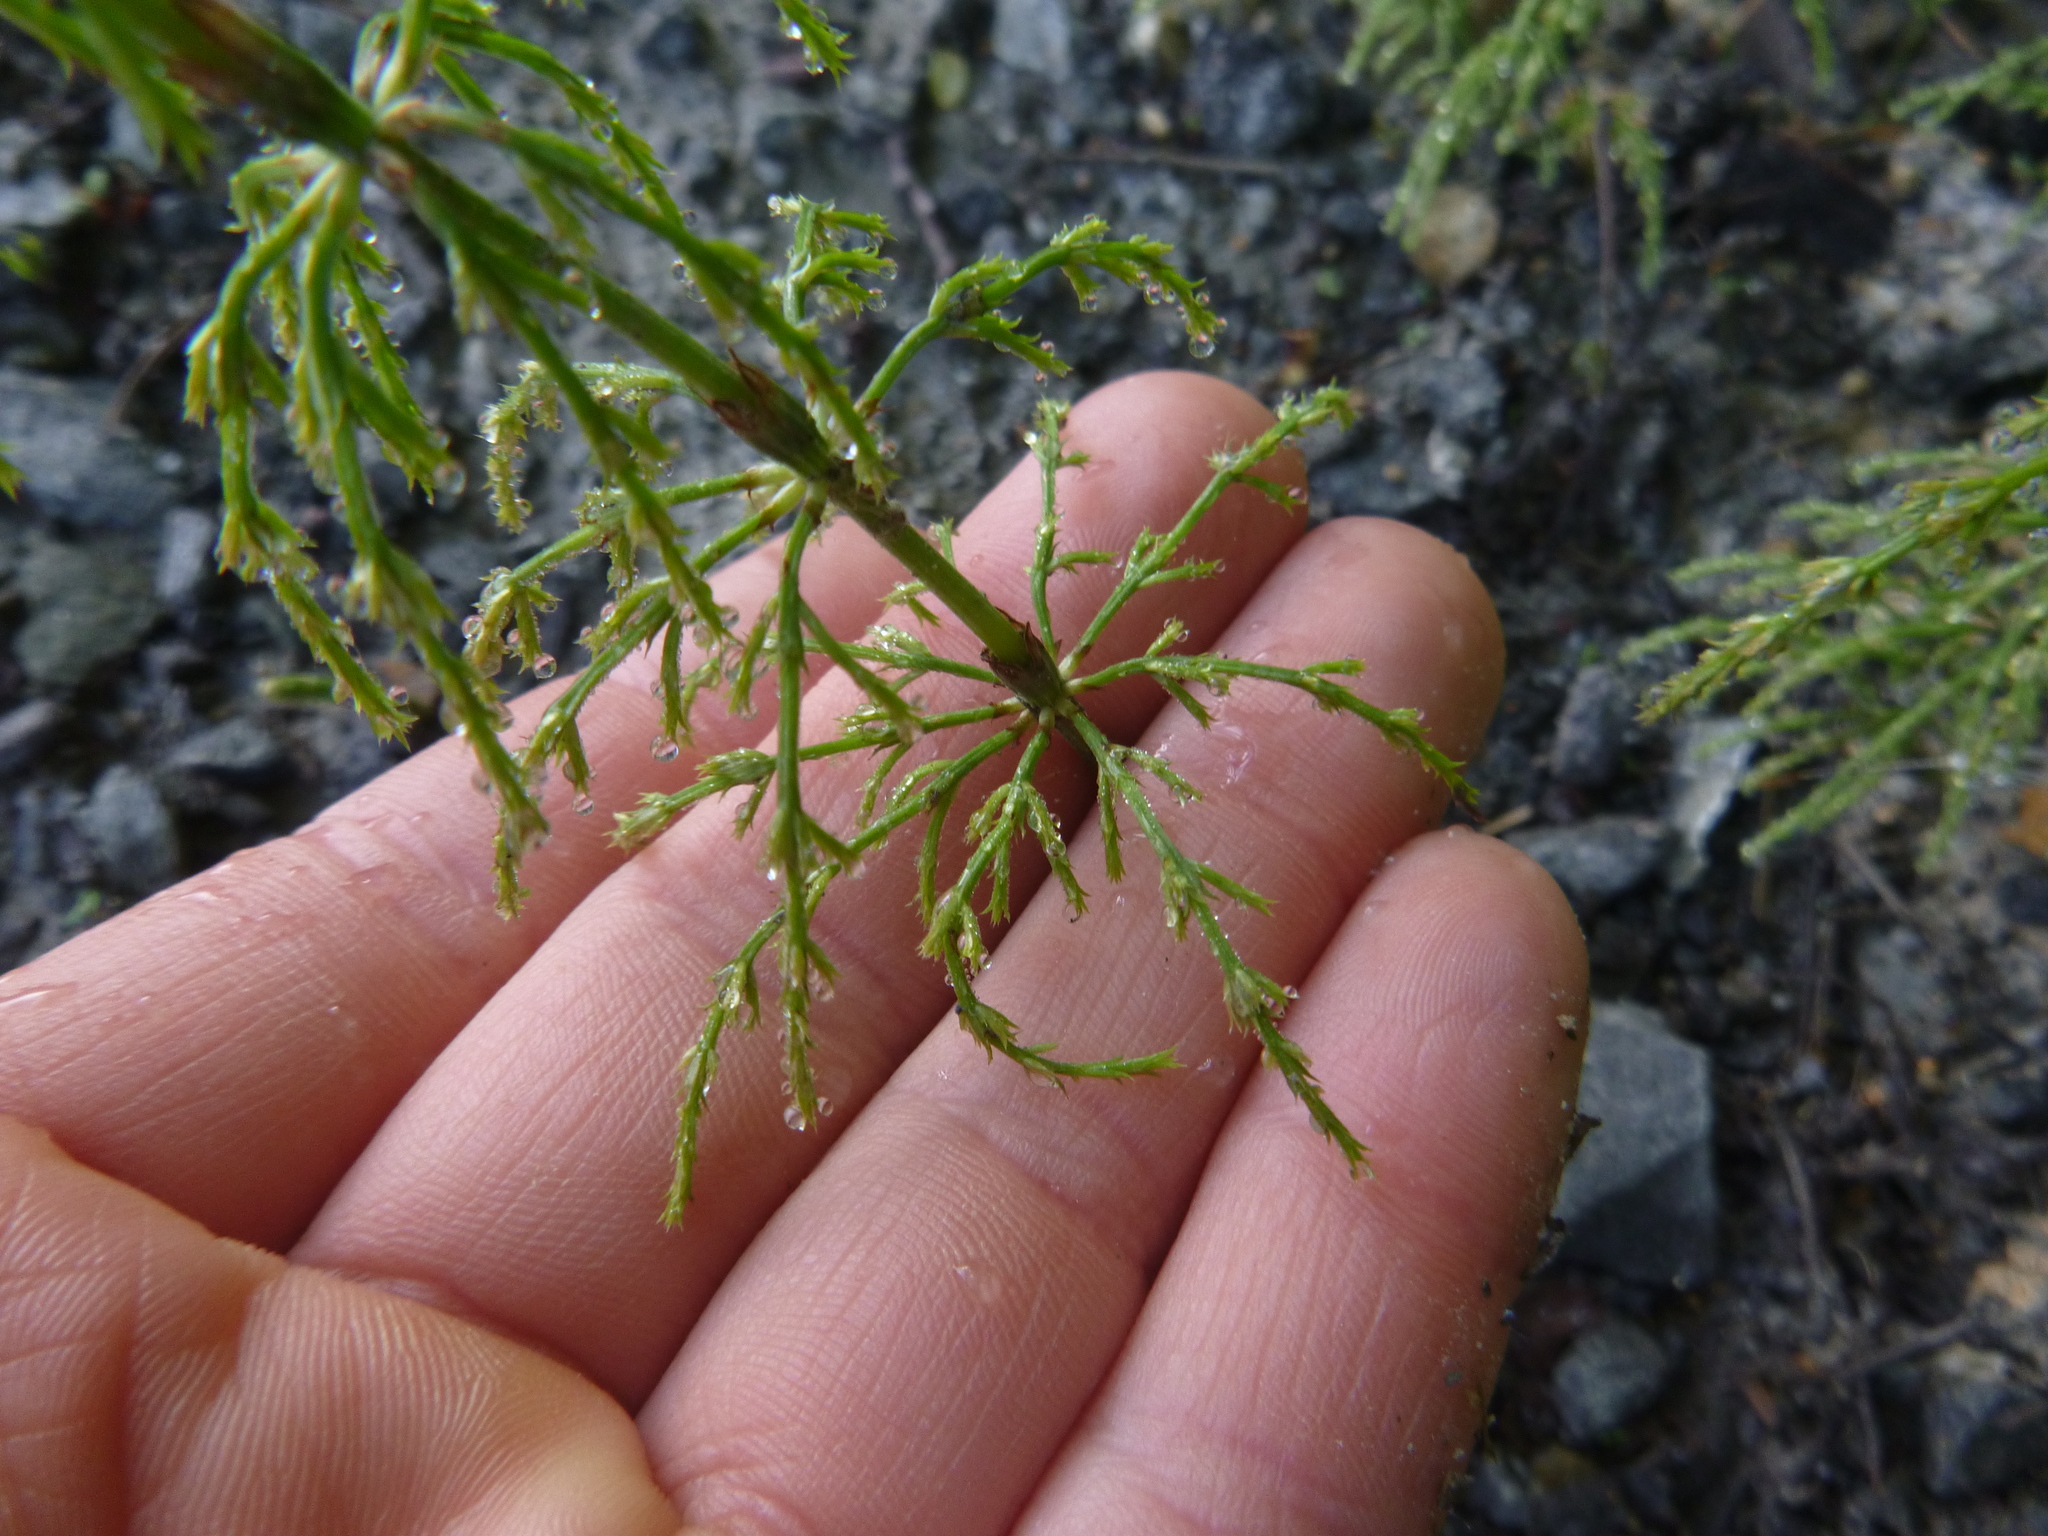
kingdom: Plantae
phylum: Tracheophyta
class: Polypodiopsida
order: Equisetales
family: Equisetaceae
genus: Equisetum
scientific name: Equisetum sylvaticum
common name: Wood horsetail
